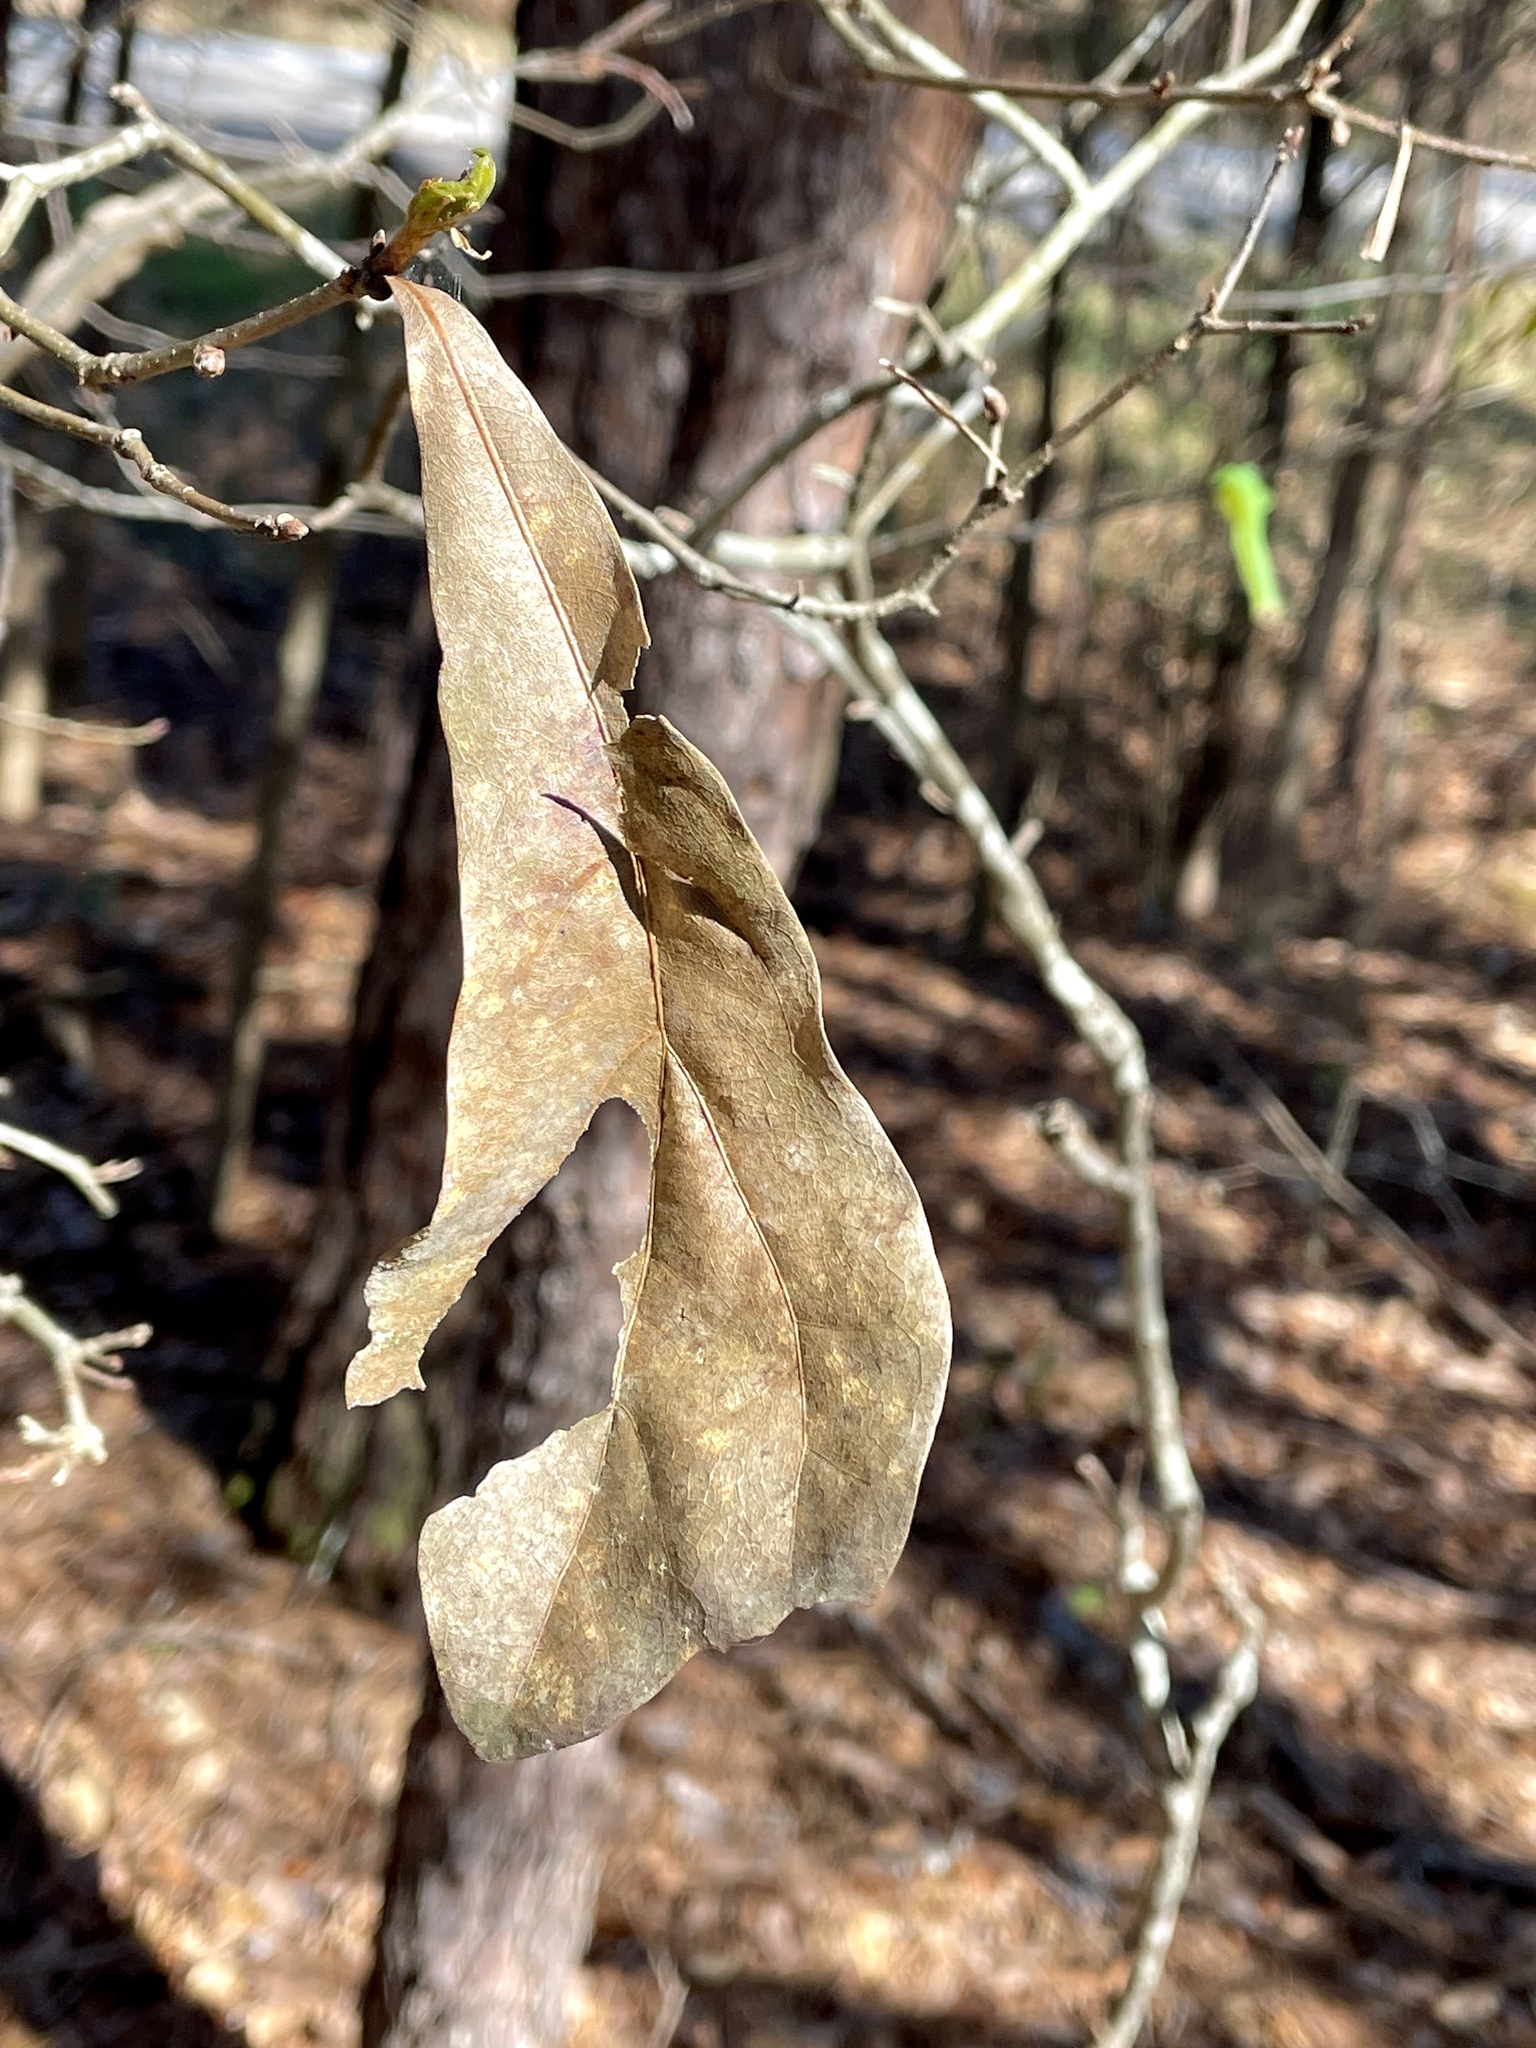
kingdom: Animalia
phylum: Arthropoda
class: Insecta
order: Hymenoptera
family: Cynipidae
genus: Callirhytis
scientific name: Callirhytis
